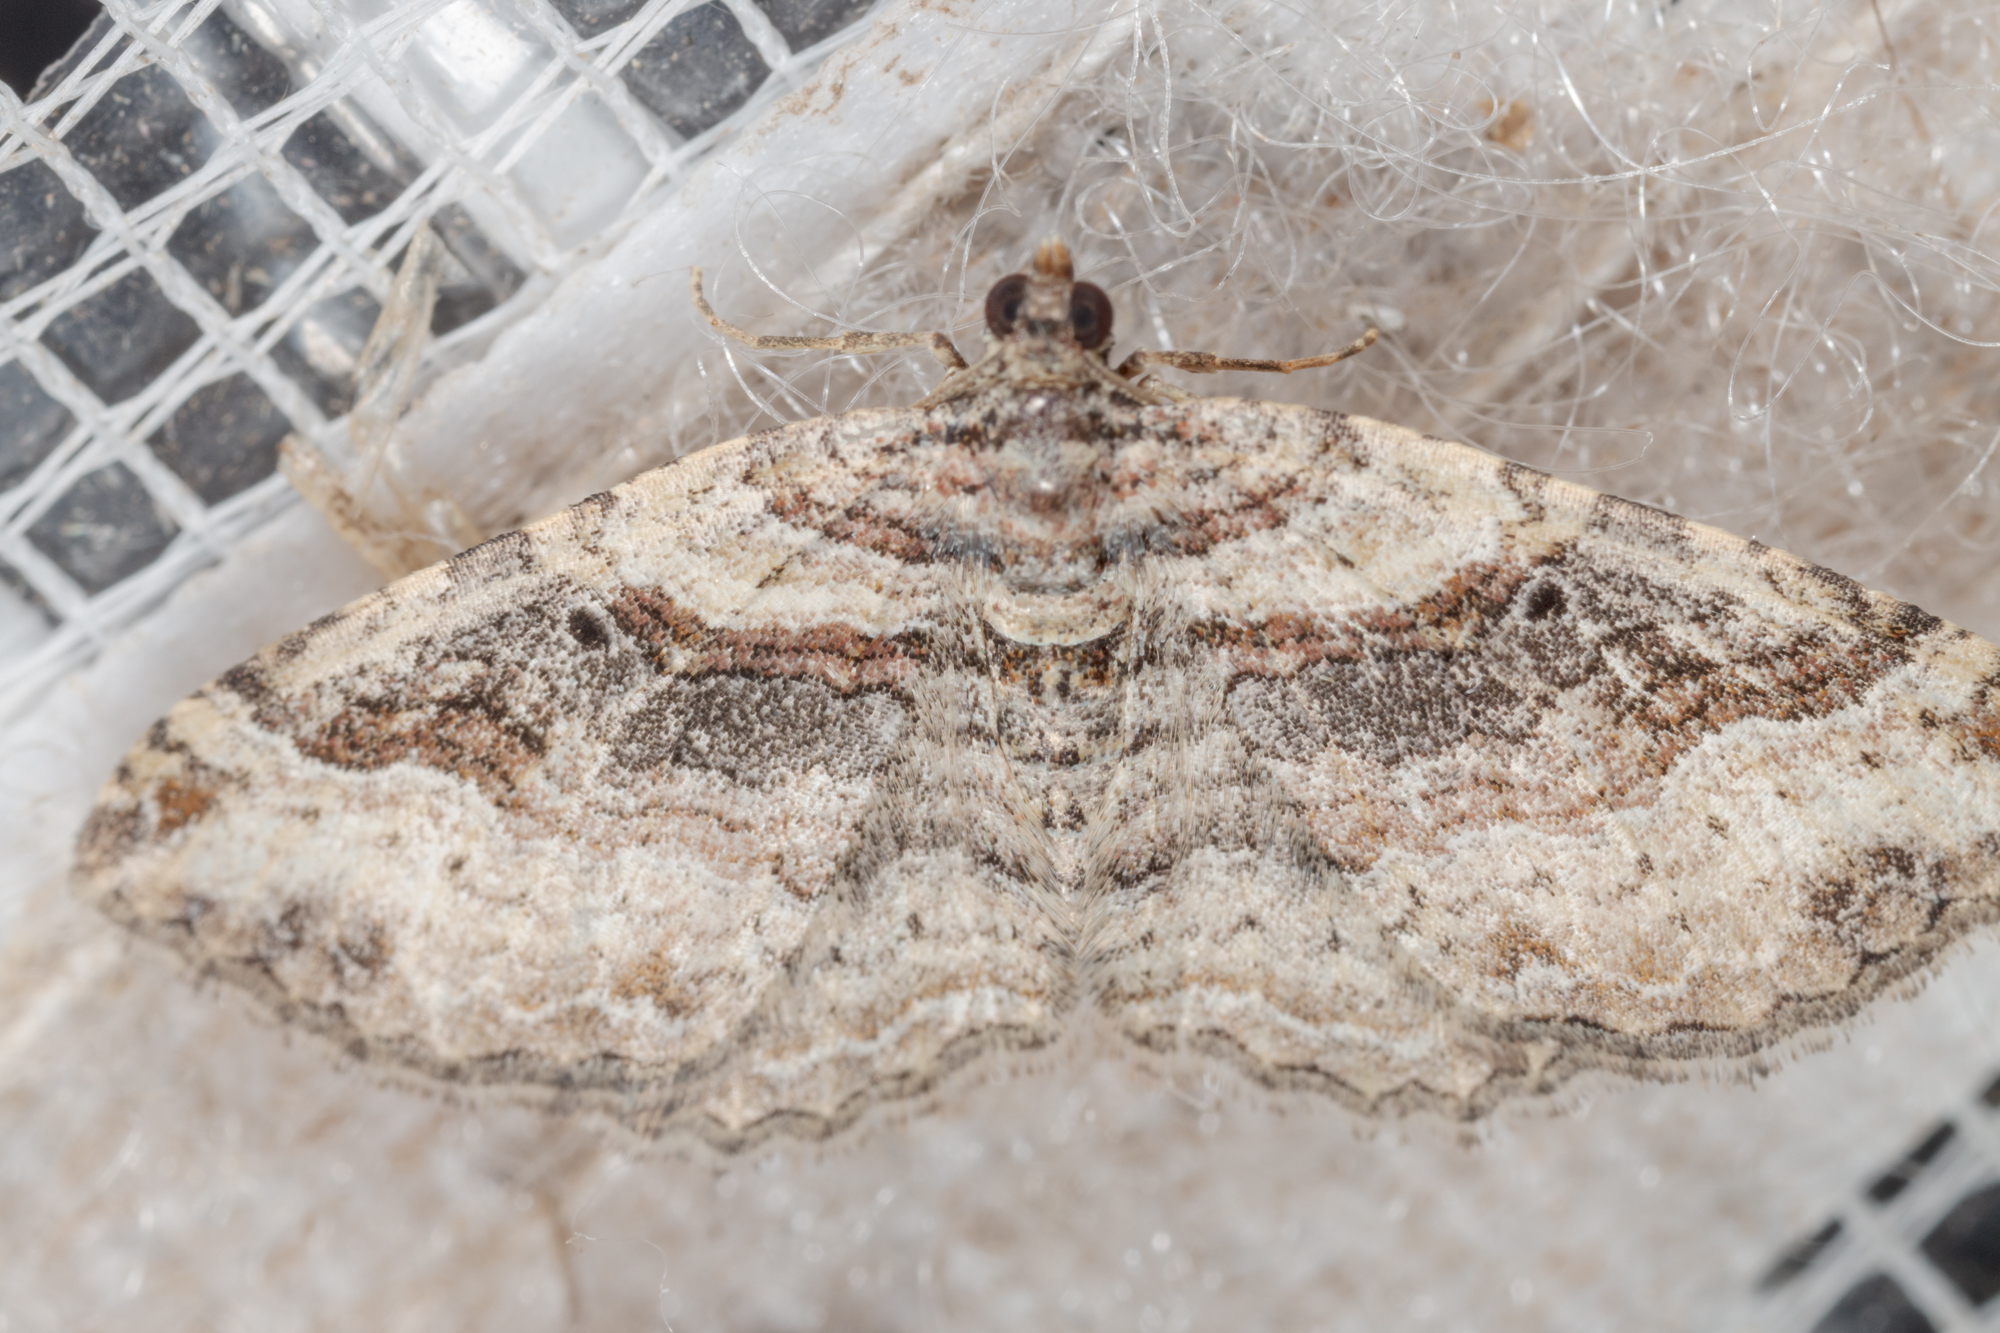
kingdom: Animalia
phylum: Arthropoda
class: Insecta
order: Lepidoptera
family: Geometridae
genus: Costaconvexa
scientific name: Costaconvexa centrostrigaria
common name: Bent-line carpet
